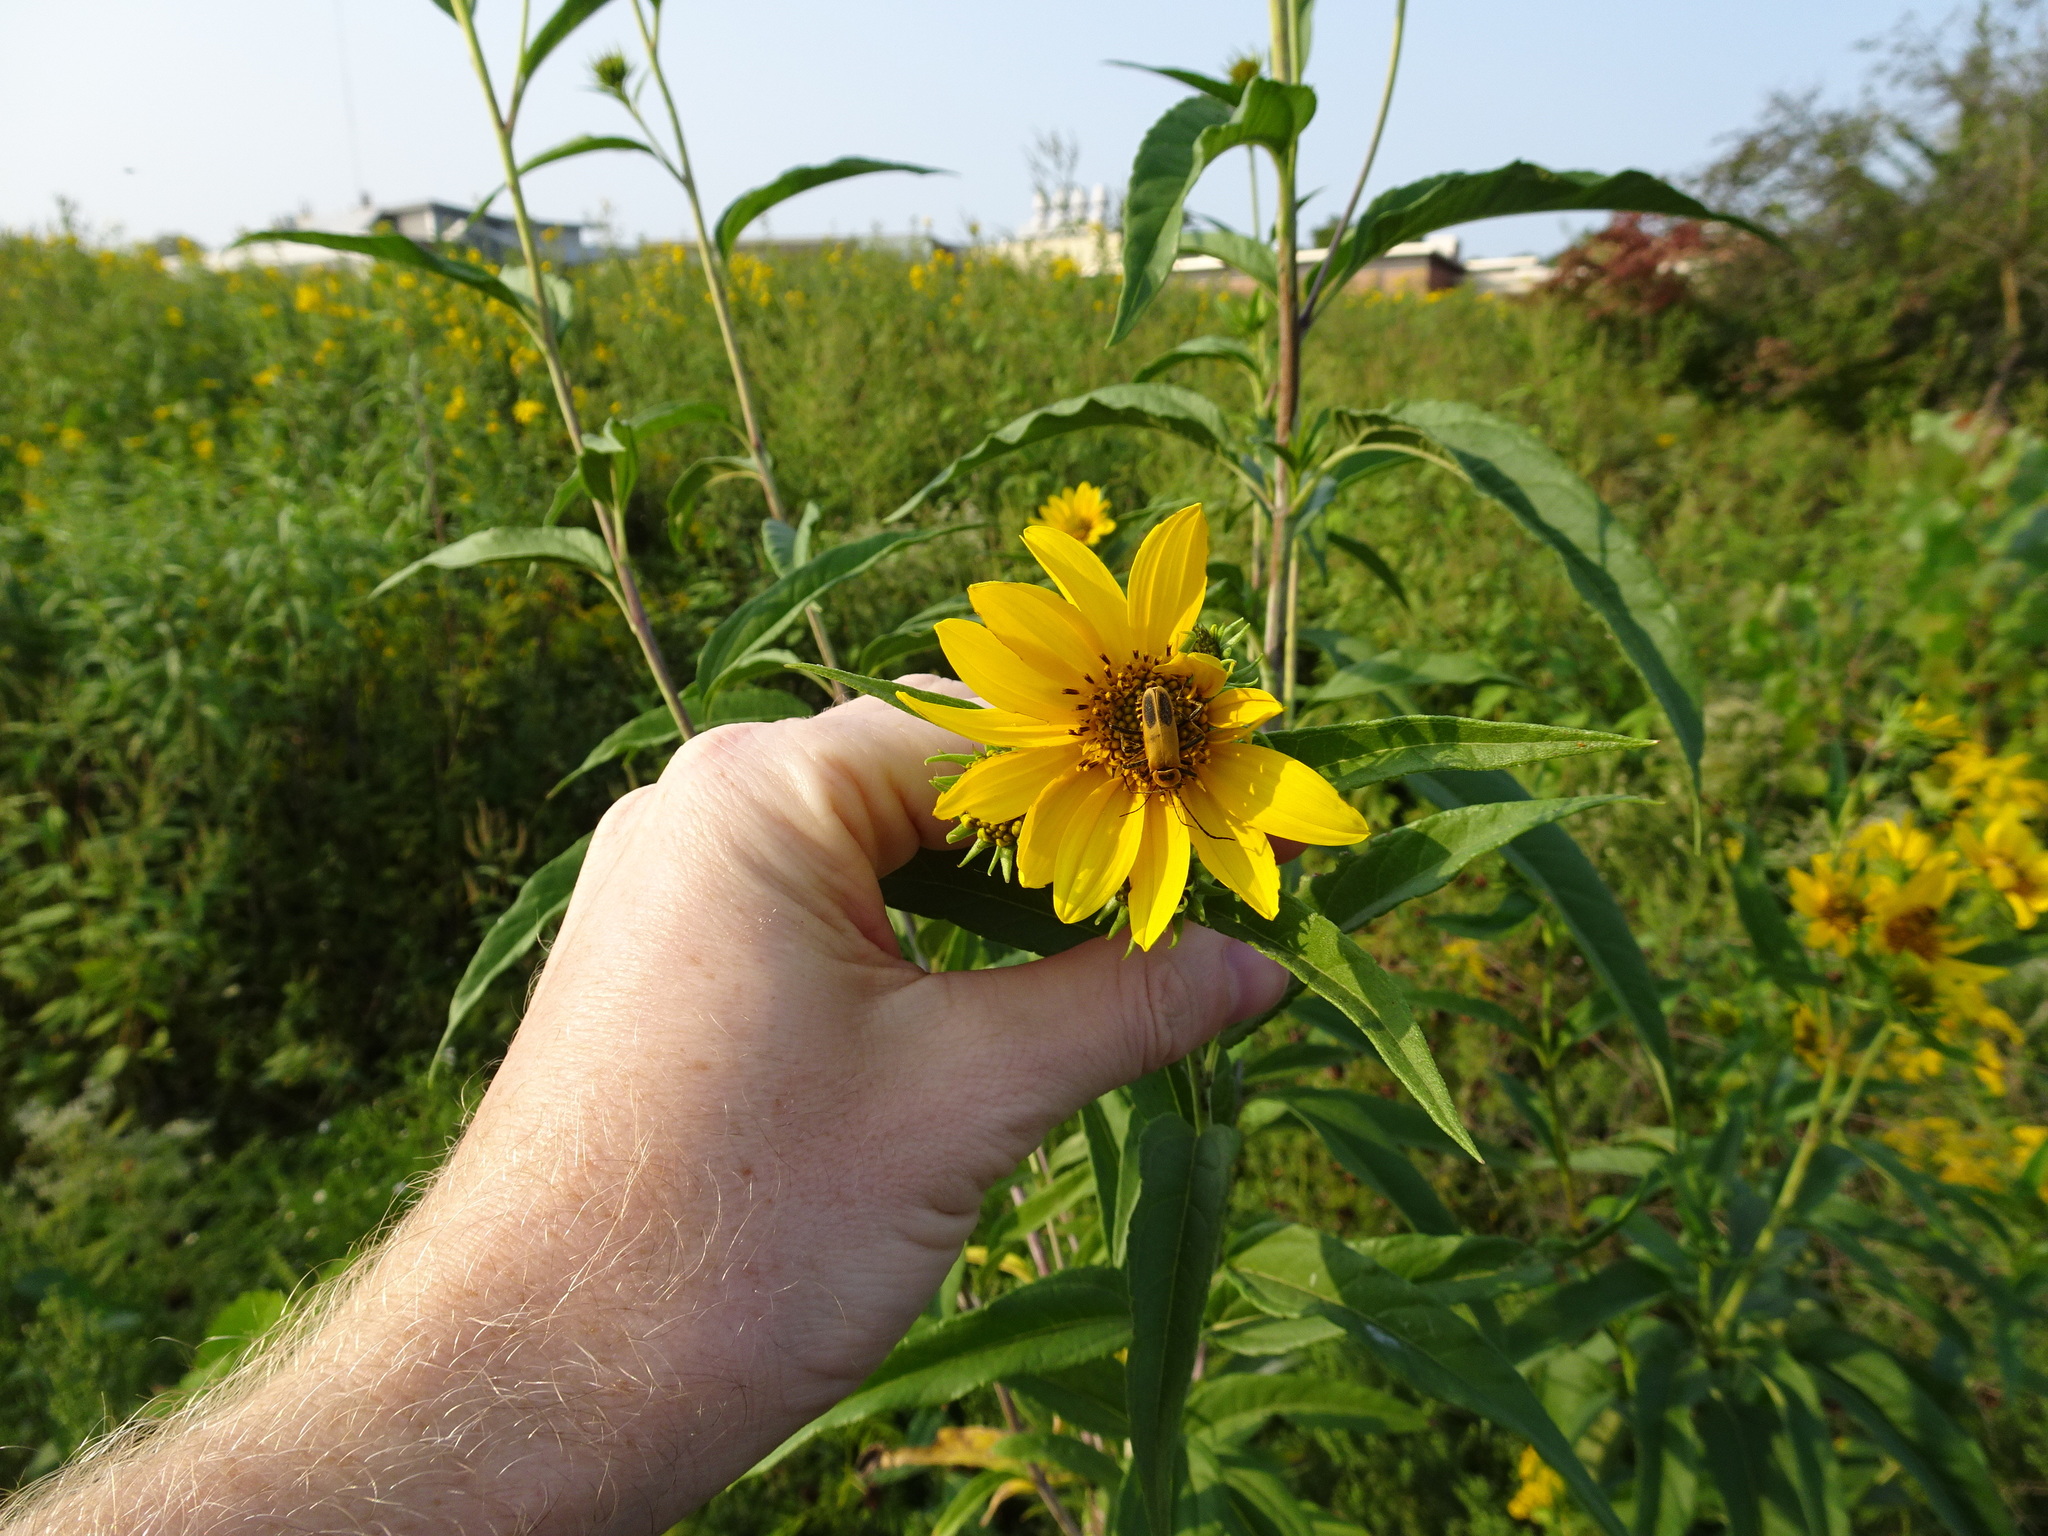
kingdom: Plantae
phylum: Tracheophyta
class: Magnoliopsida
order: Asterales
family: Asteraceae
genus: Helianthus
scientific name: Helianthus grosseserratus
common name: Sawtooth sunflower
